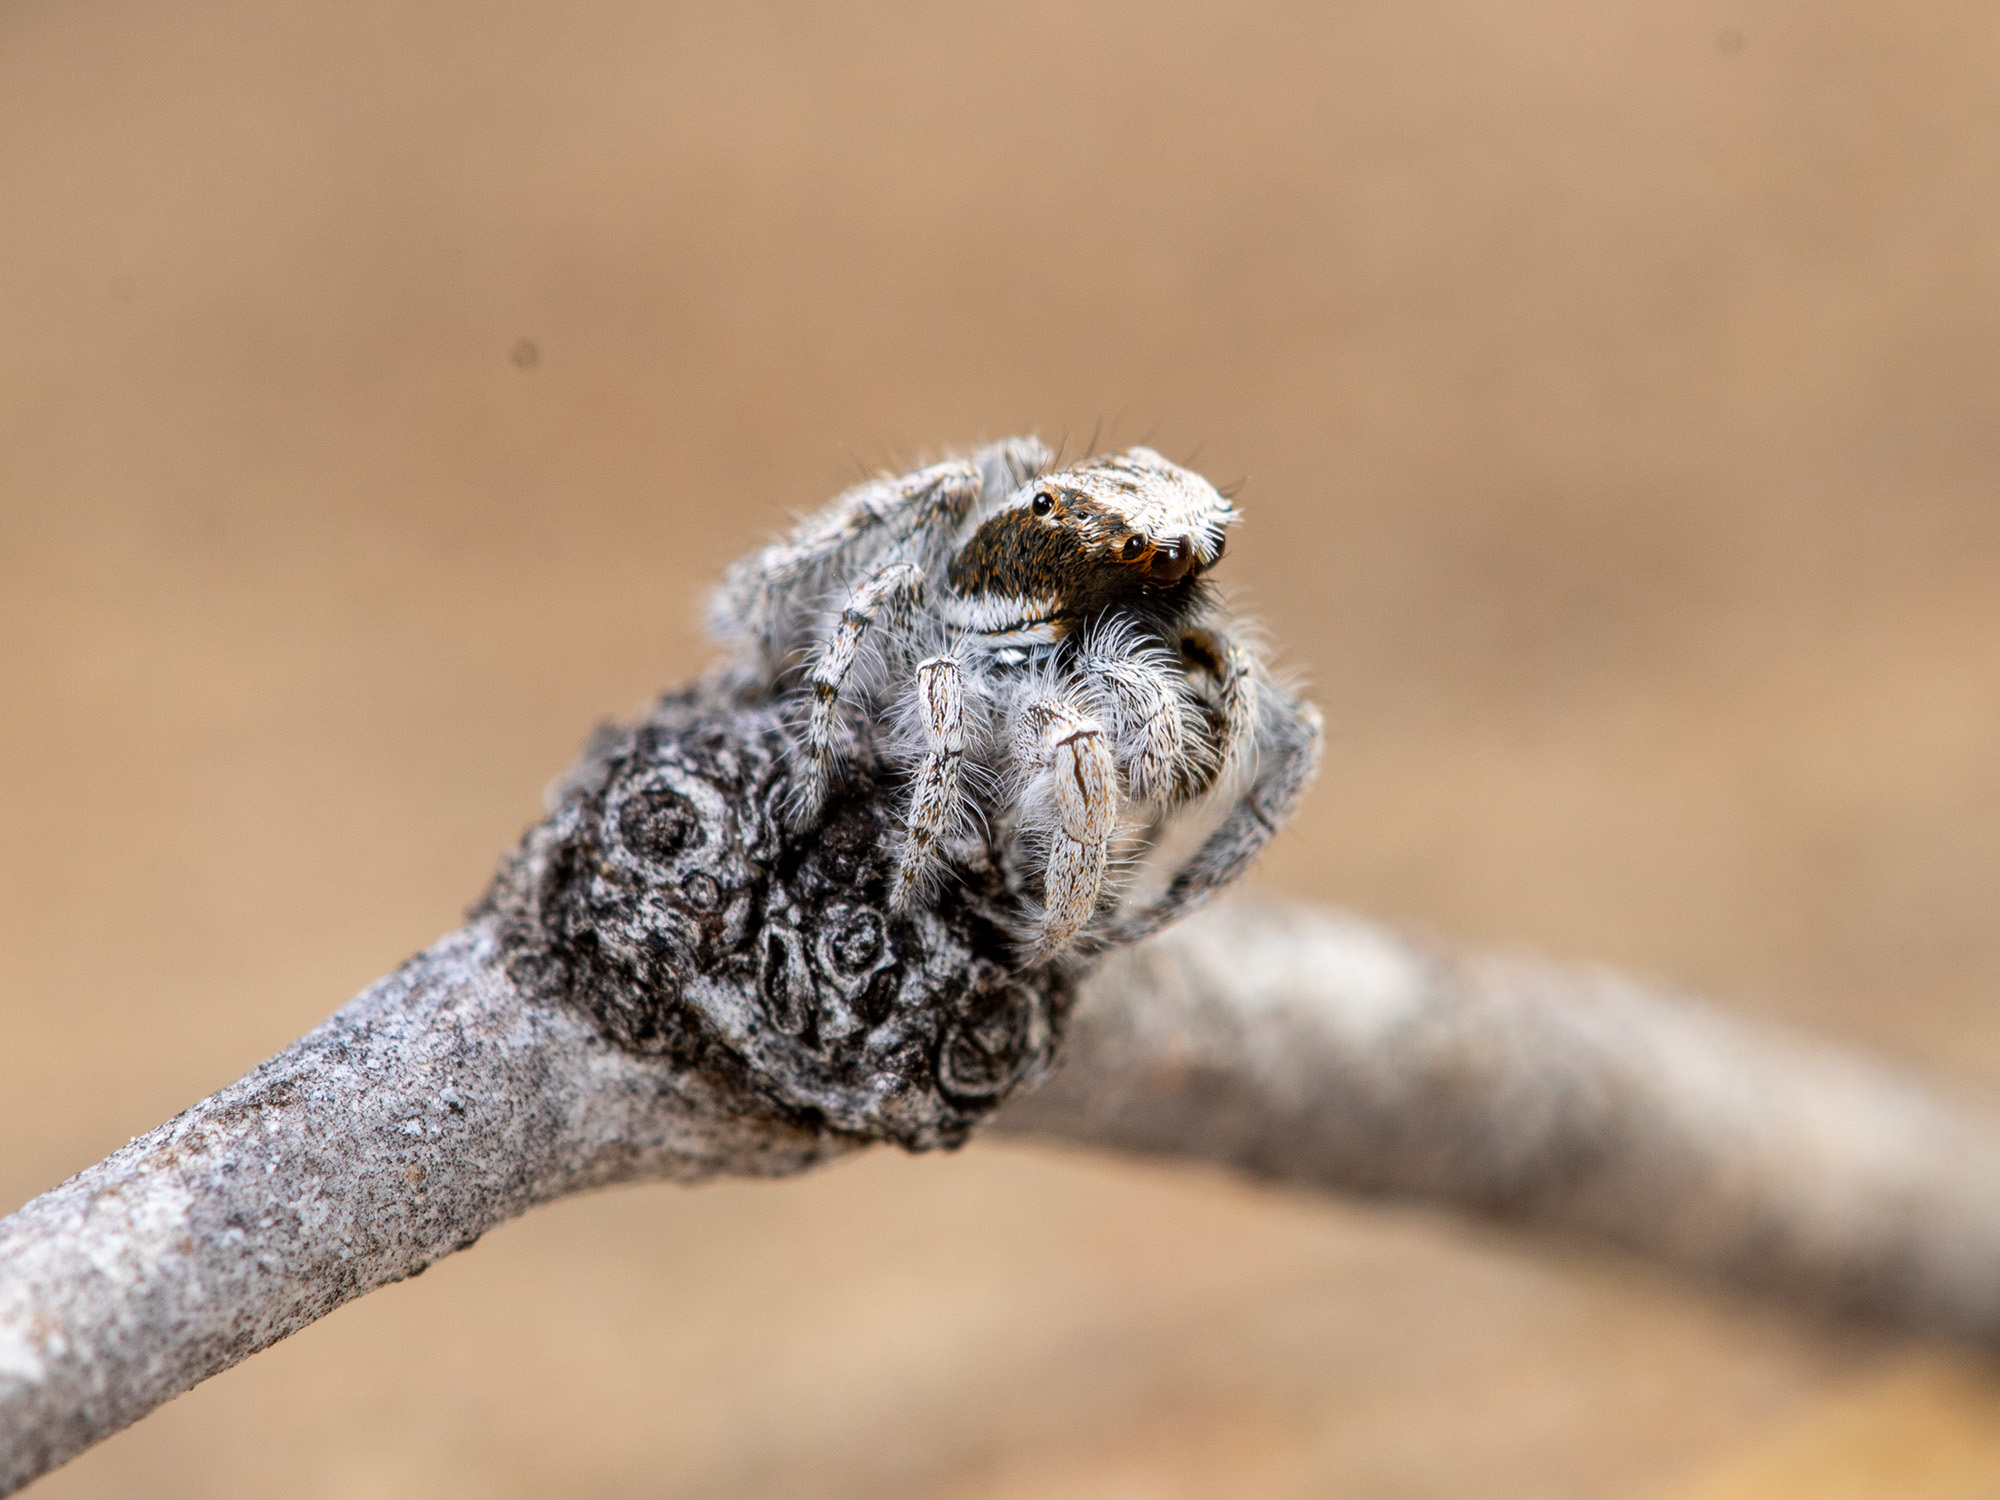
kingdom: Animalia
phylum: Arthropoda
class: Arachnida
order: Araneae
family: Salticidae
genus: Marusyllus
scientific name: Marusyllus aralicus
